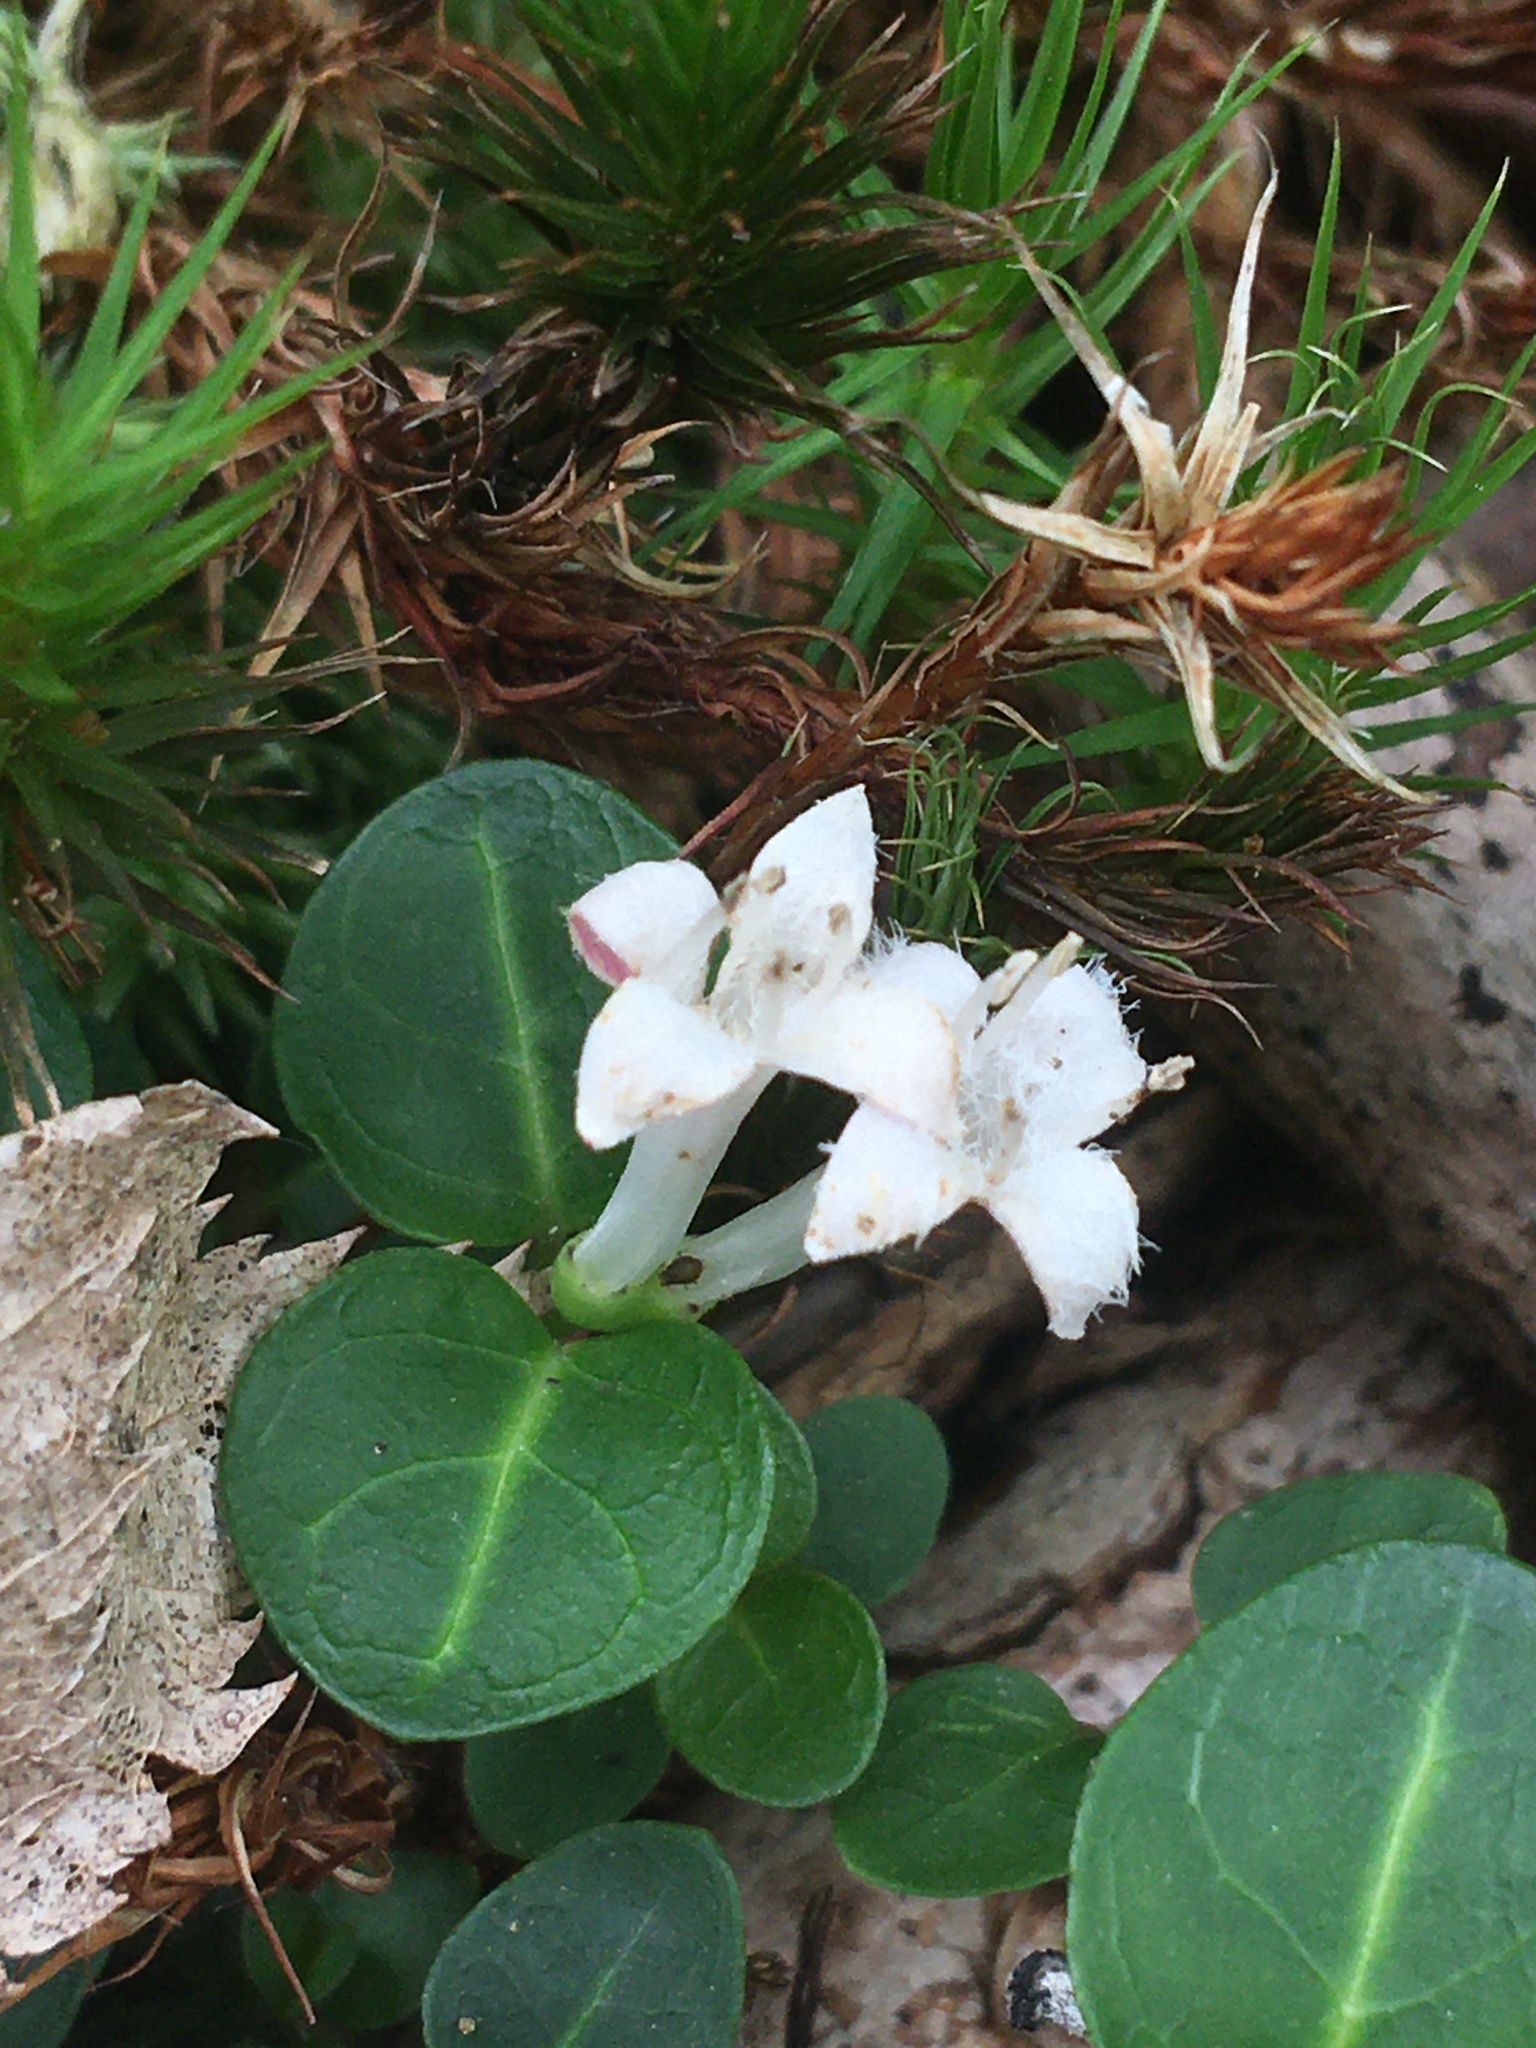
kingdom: Plantae
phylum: Tracheophyta
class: Magnoliopsida
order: Gentianales
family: Rubiaceae
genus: Mitchella
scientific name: Mitchella repens
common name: Partridge-berry
